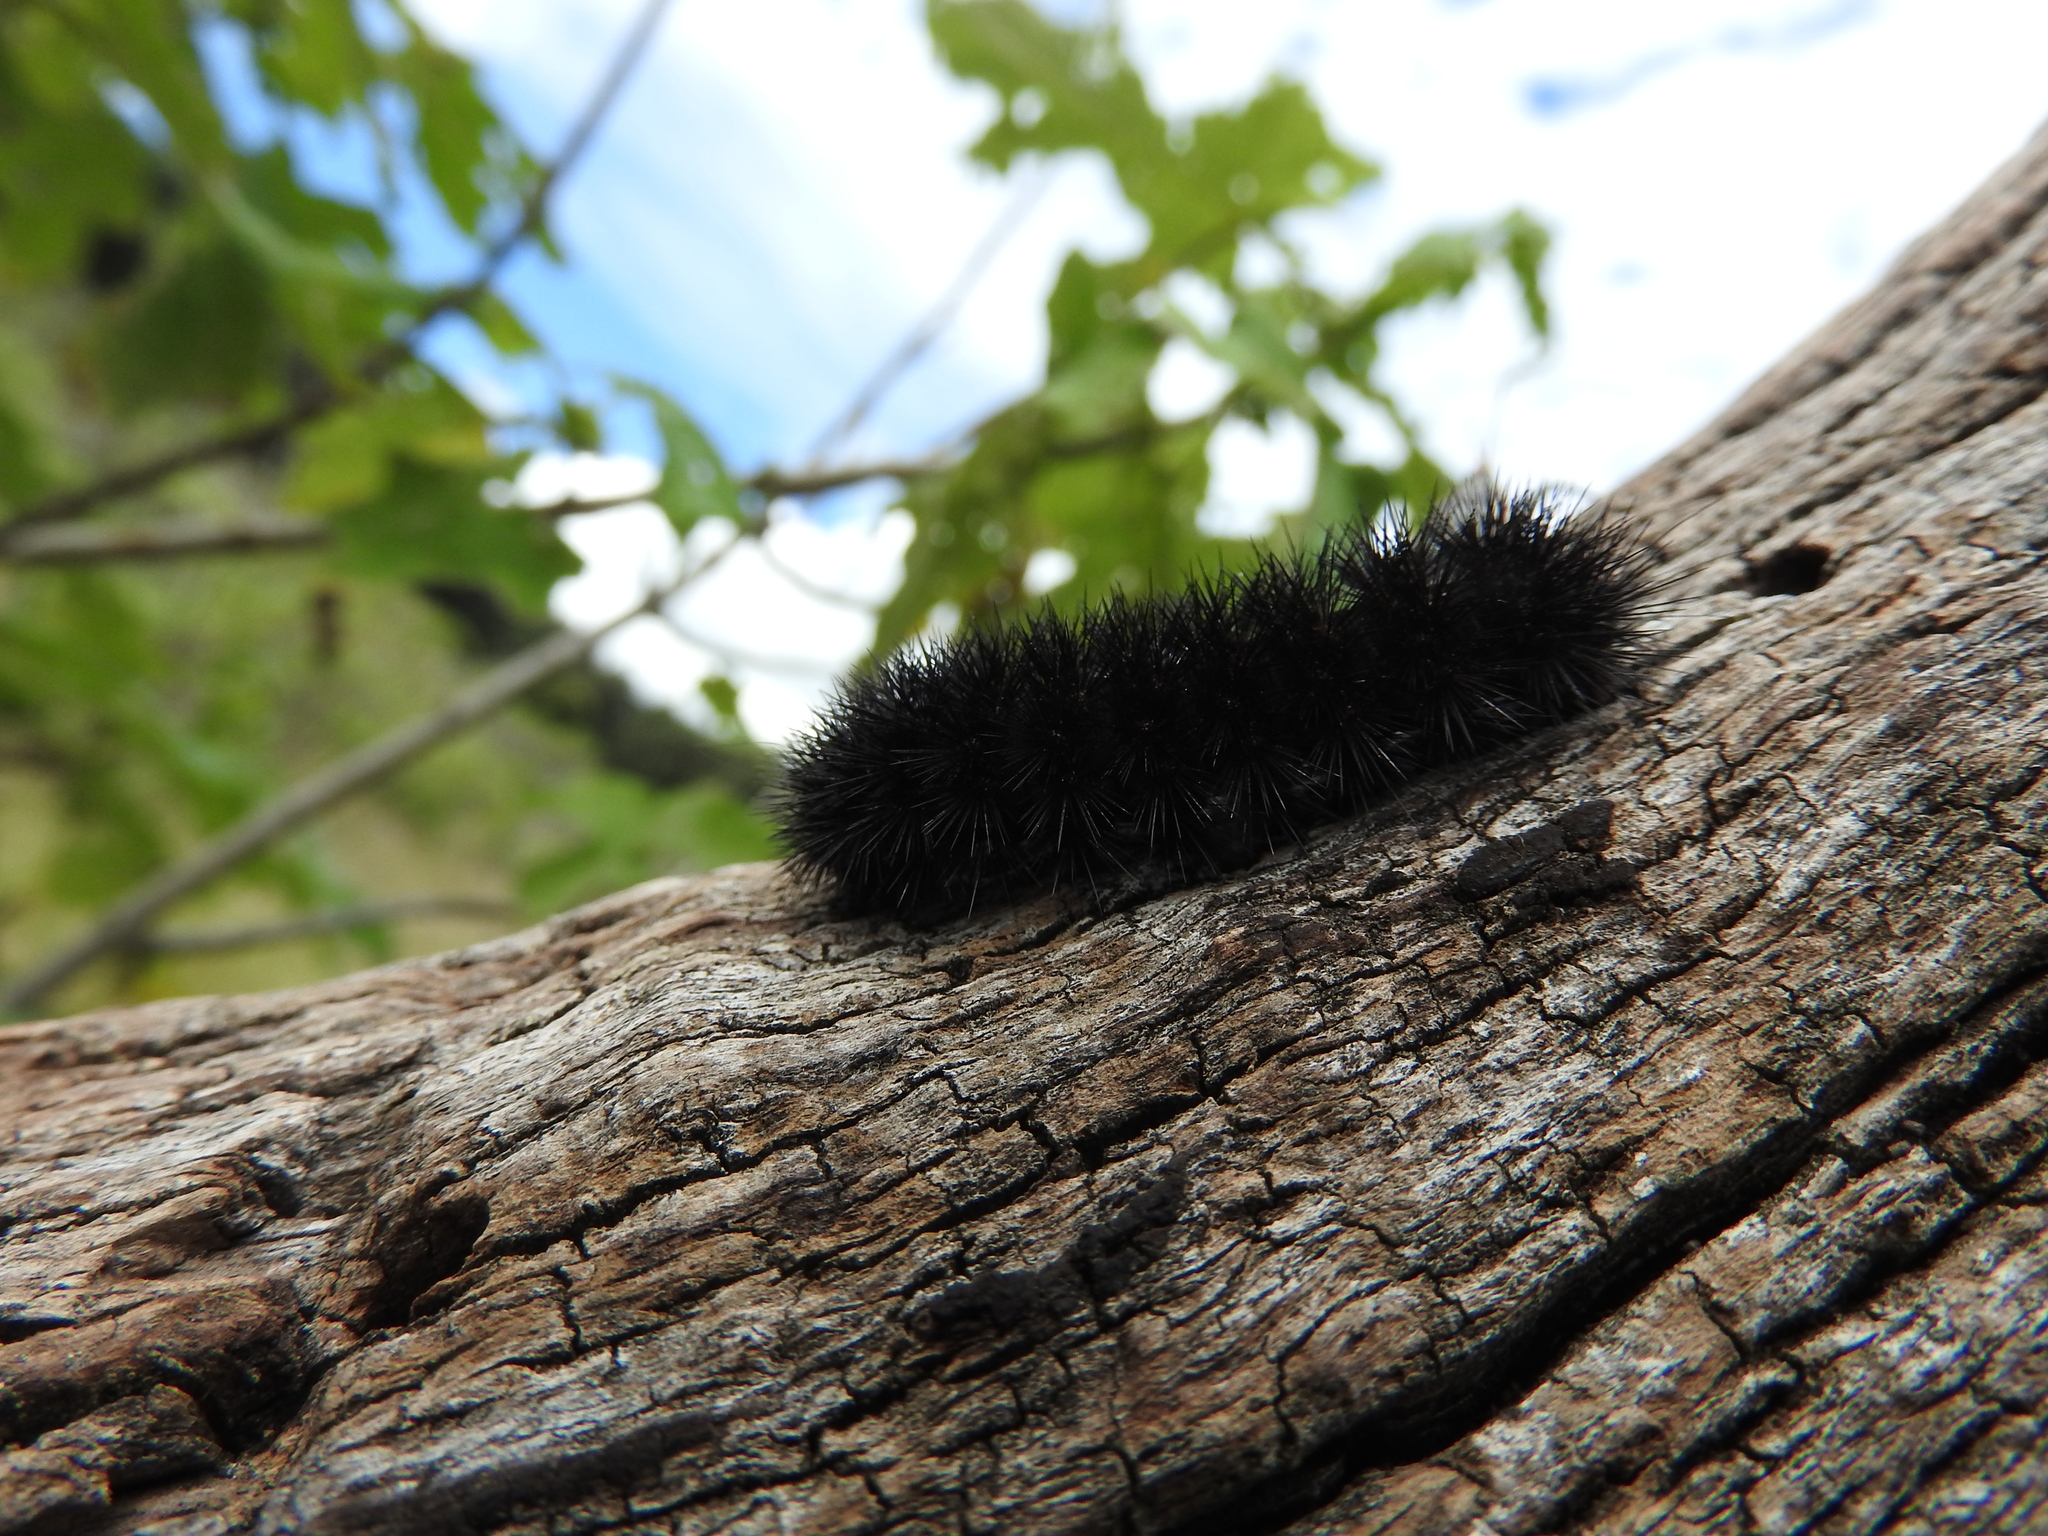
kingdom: Animalia
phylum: Arthropoda
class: Insecta
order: Lepidoptera
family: Erebidae
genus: Hypercompe
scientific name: Hypercompe scribonia
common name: Giant leopard moth
